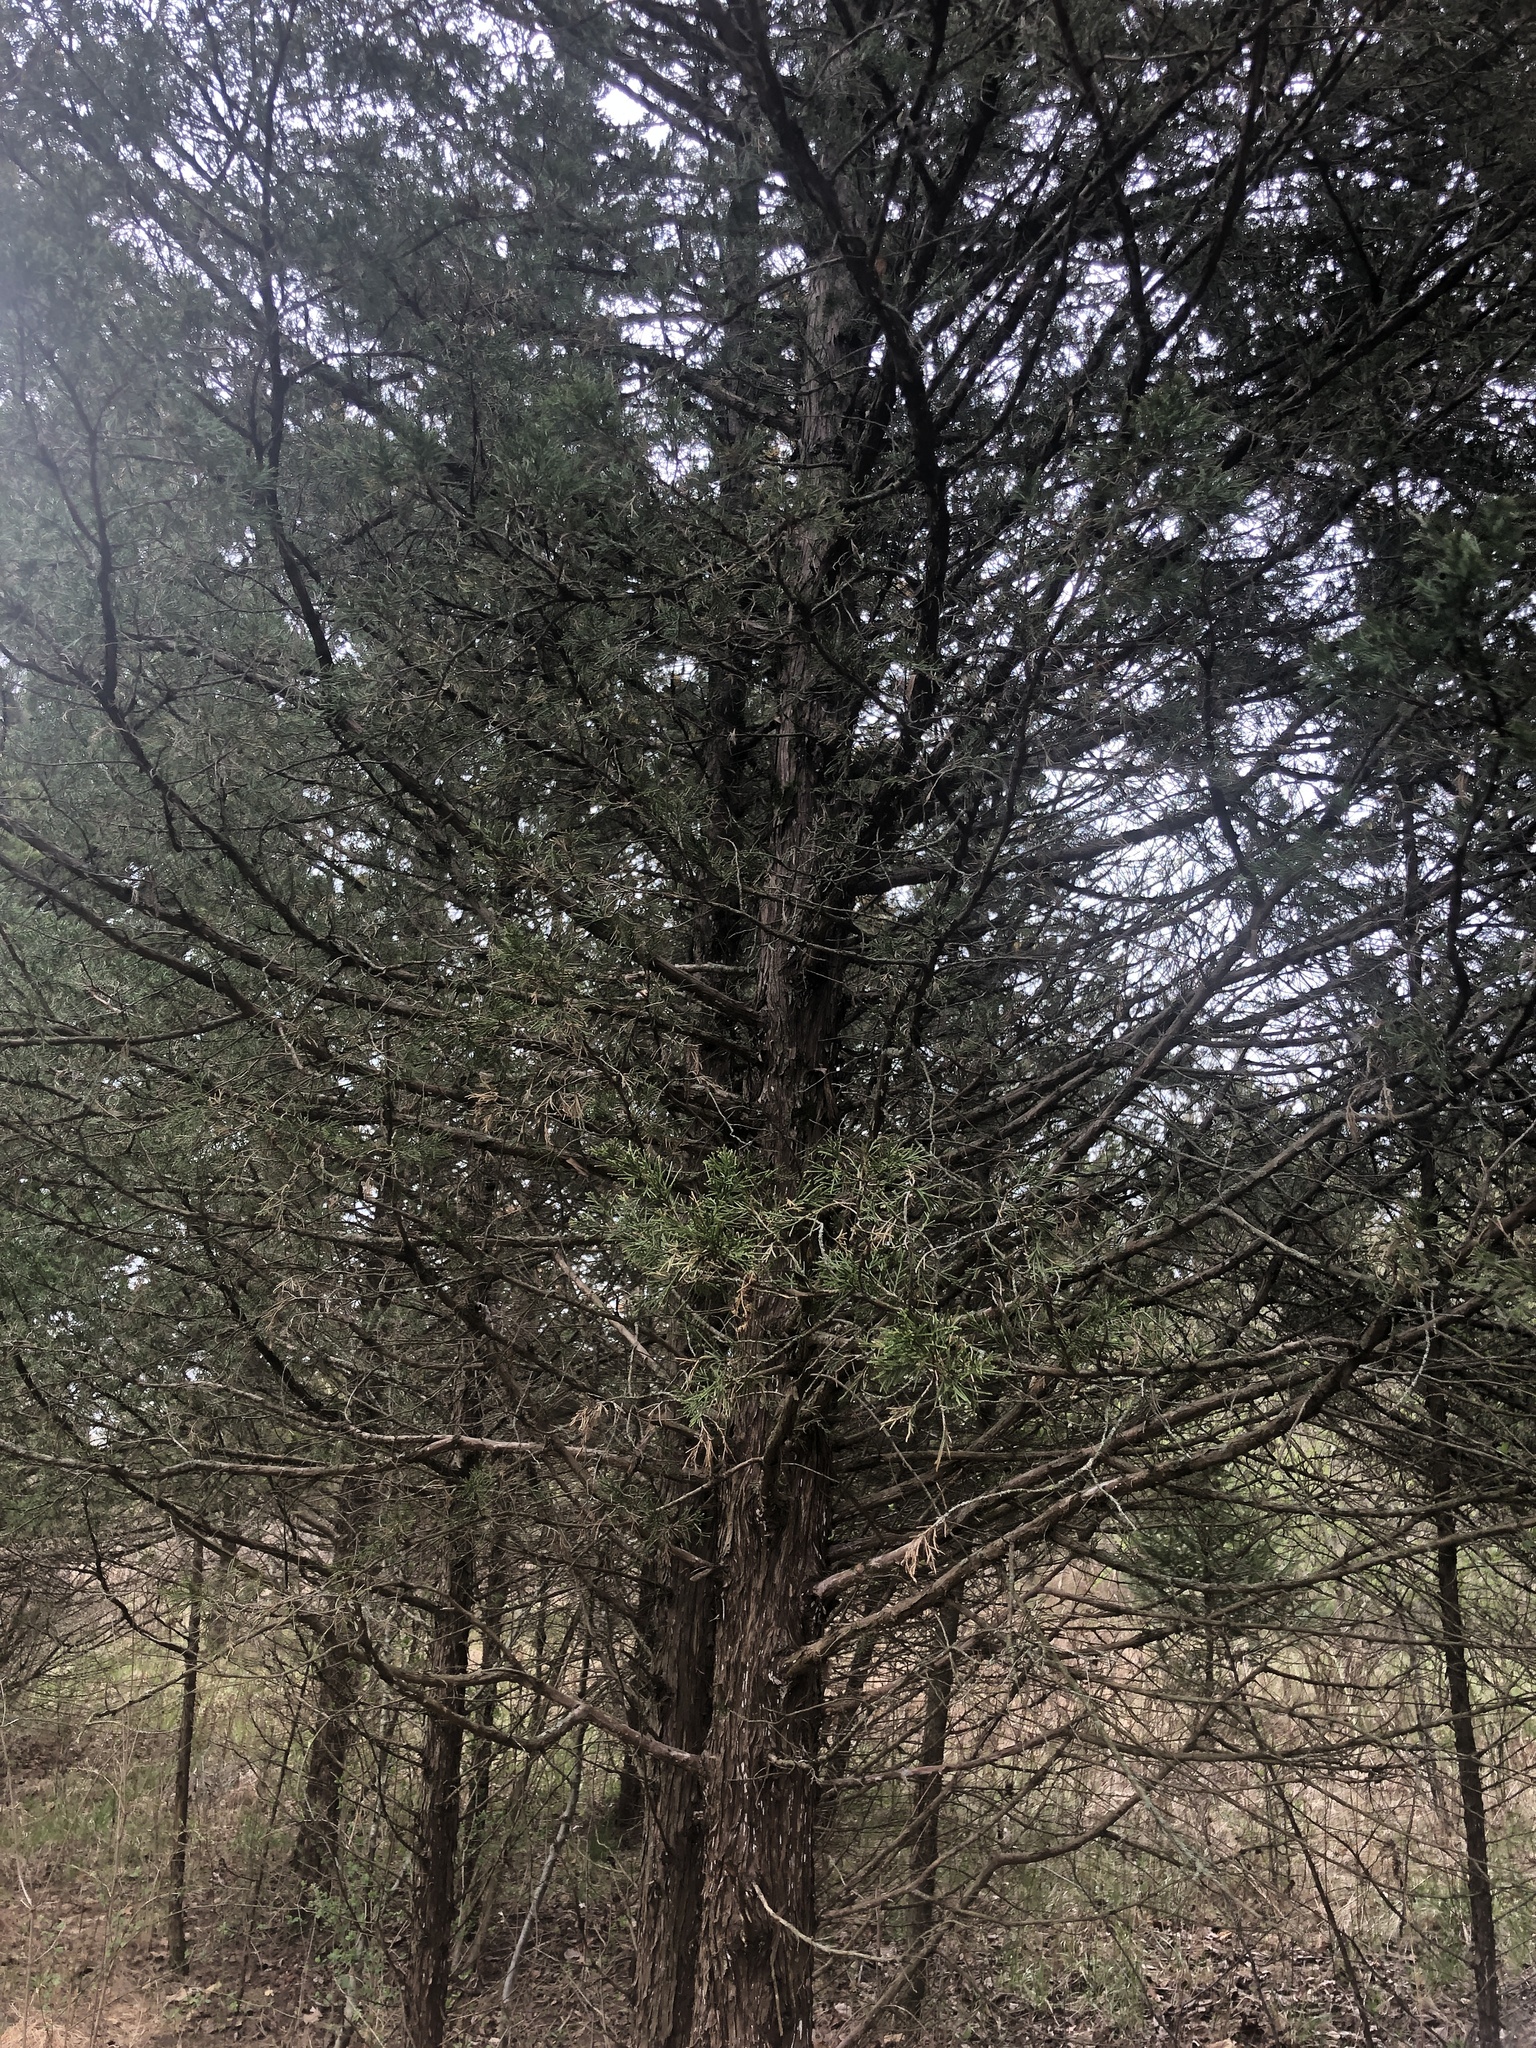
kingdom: Plantae
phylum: Tracheophyta
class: Pinopsida
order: Pinales
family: Cupressaceae
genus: Juniperus
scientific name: Juniperus virginiana
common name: Red juniper
